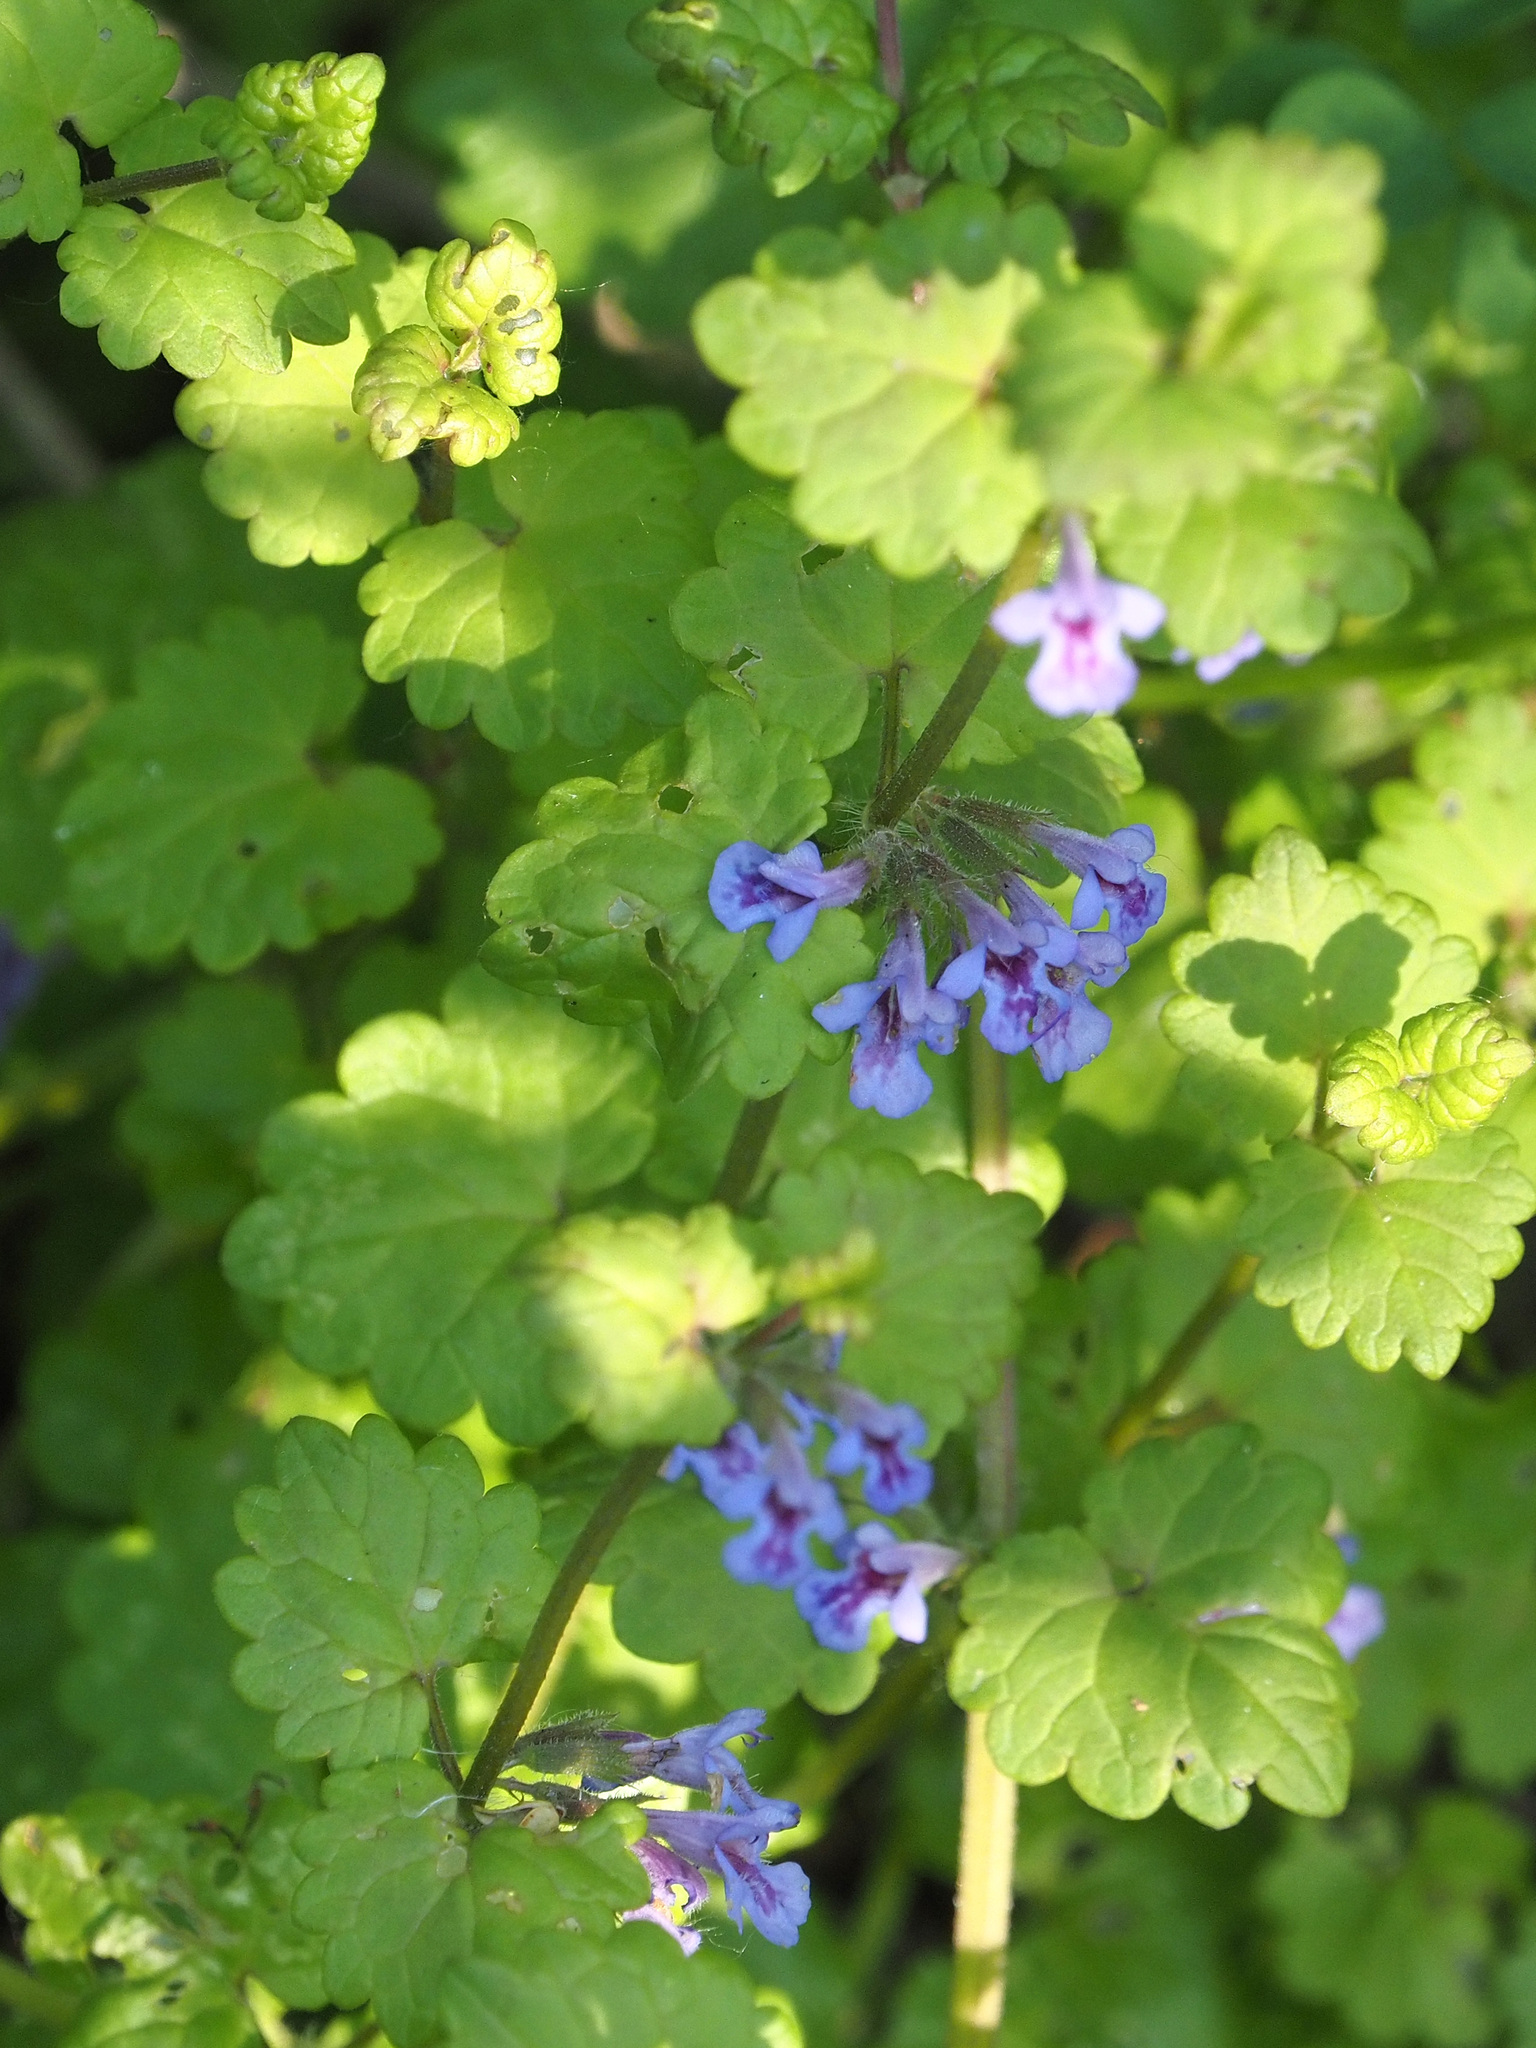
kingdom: Plantae
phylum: Tracheophyta
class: Magnoliopsida
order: Lamiales
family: Lamiaceae
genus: Glechoma
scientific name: Glechoma hederacea
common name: Ground ivy
